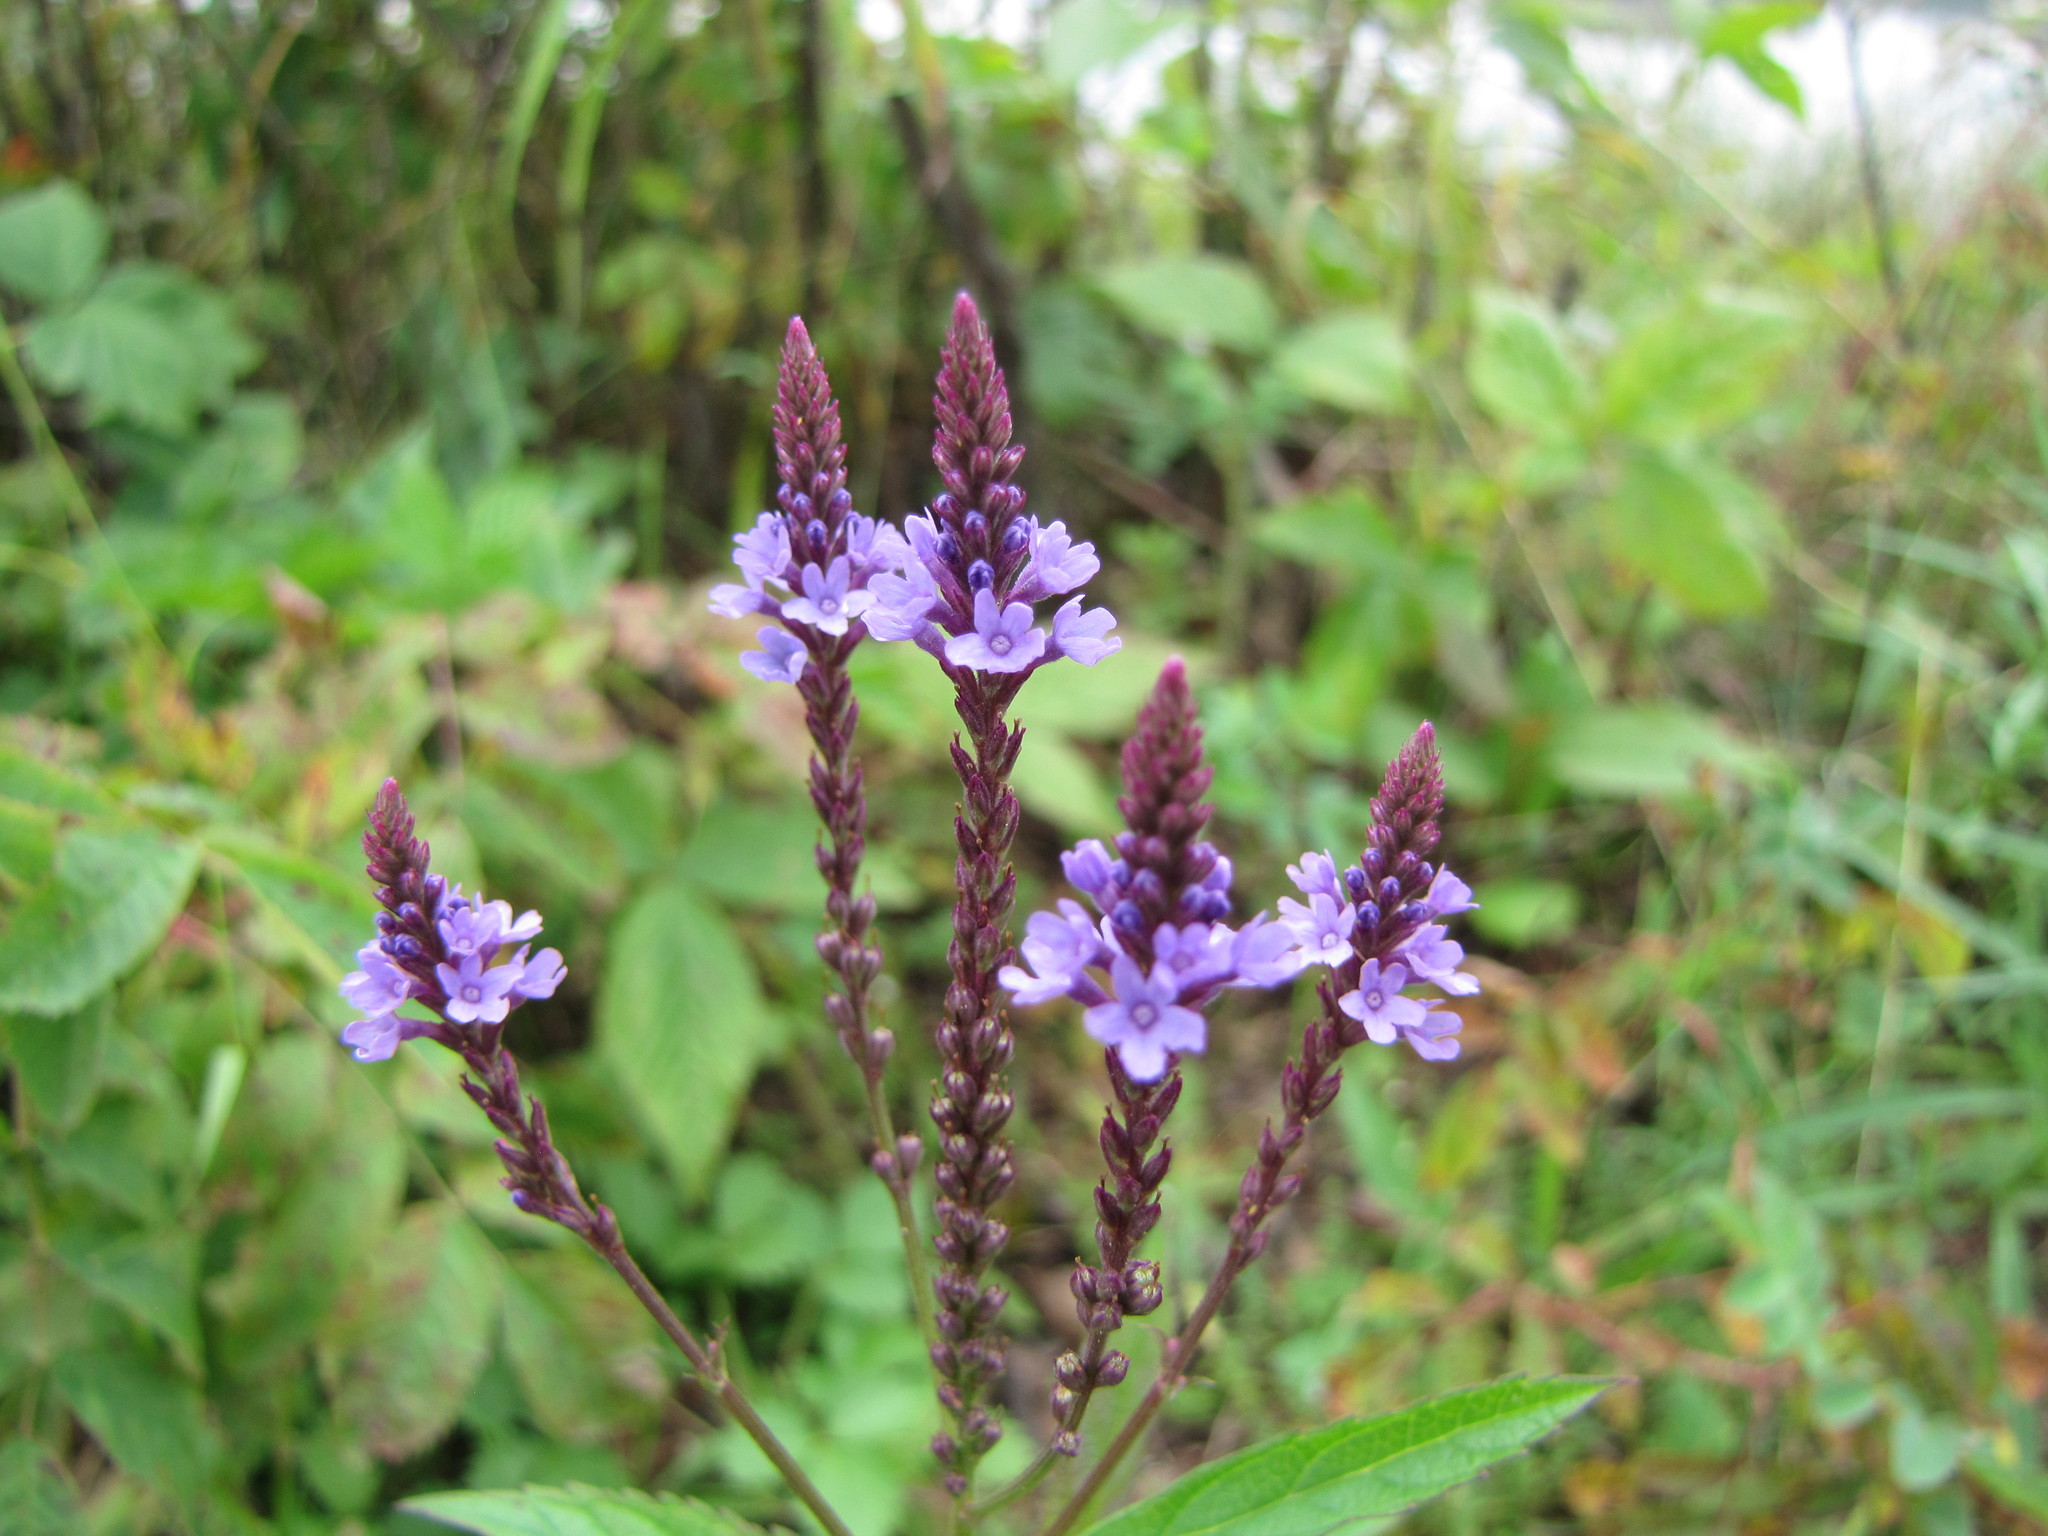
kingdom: Plantae
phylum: Tracheophyta
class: Magnoliopsida
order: Lamiales
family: Verbenaceae
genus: Verbena
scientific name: Verbena hastata
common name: American blue vervain
